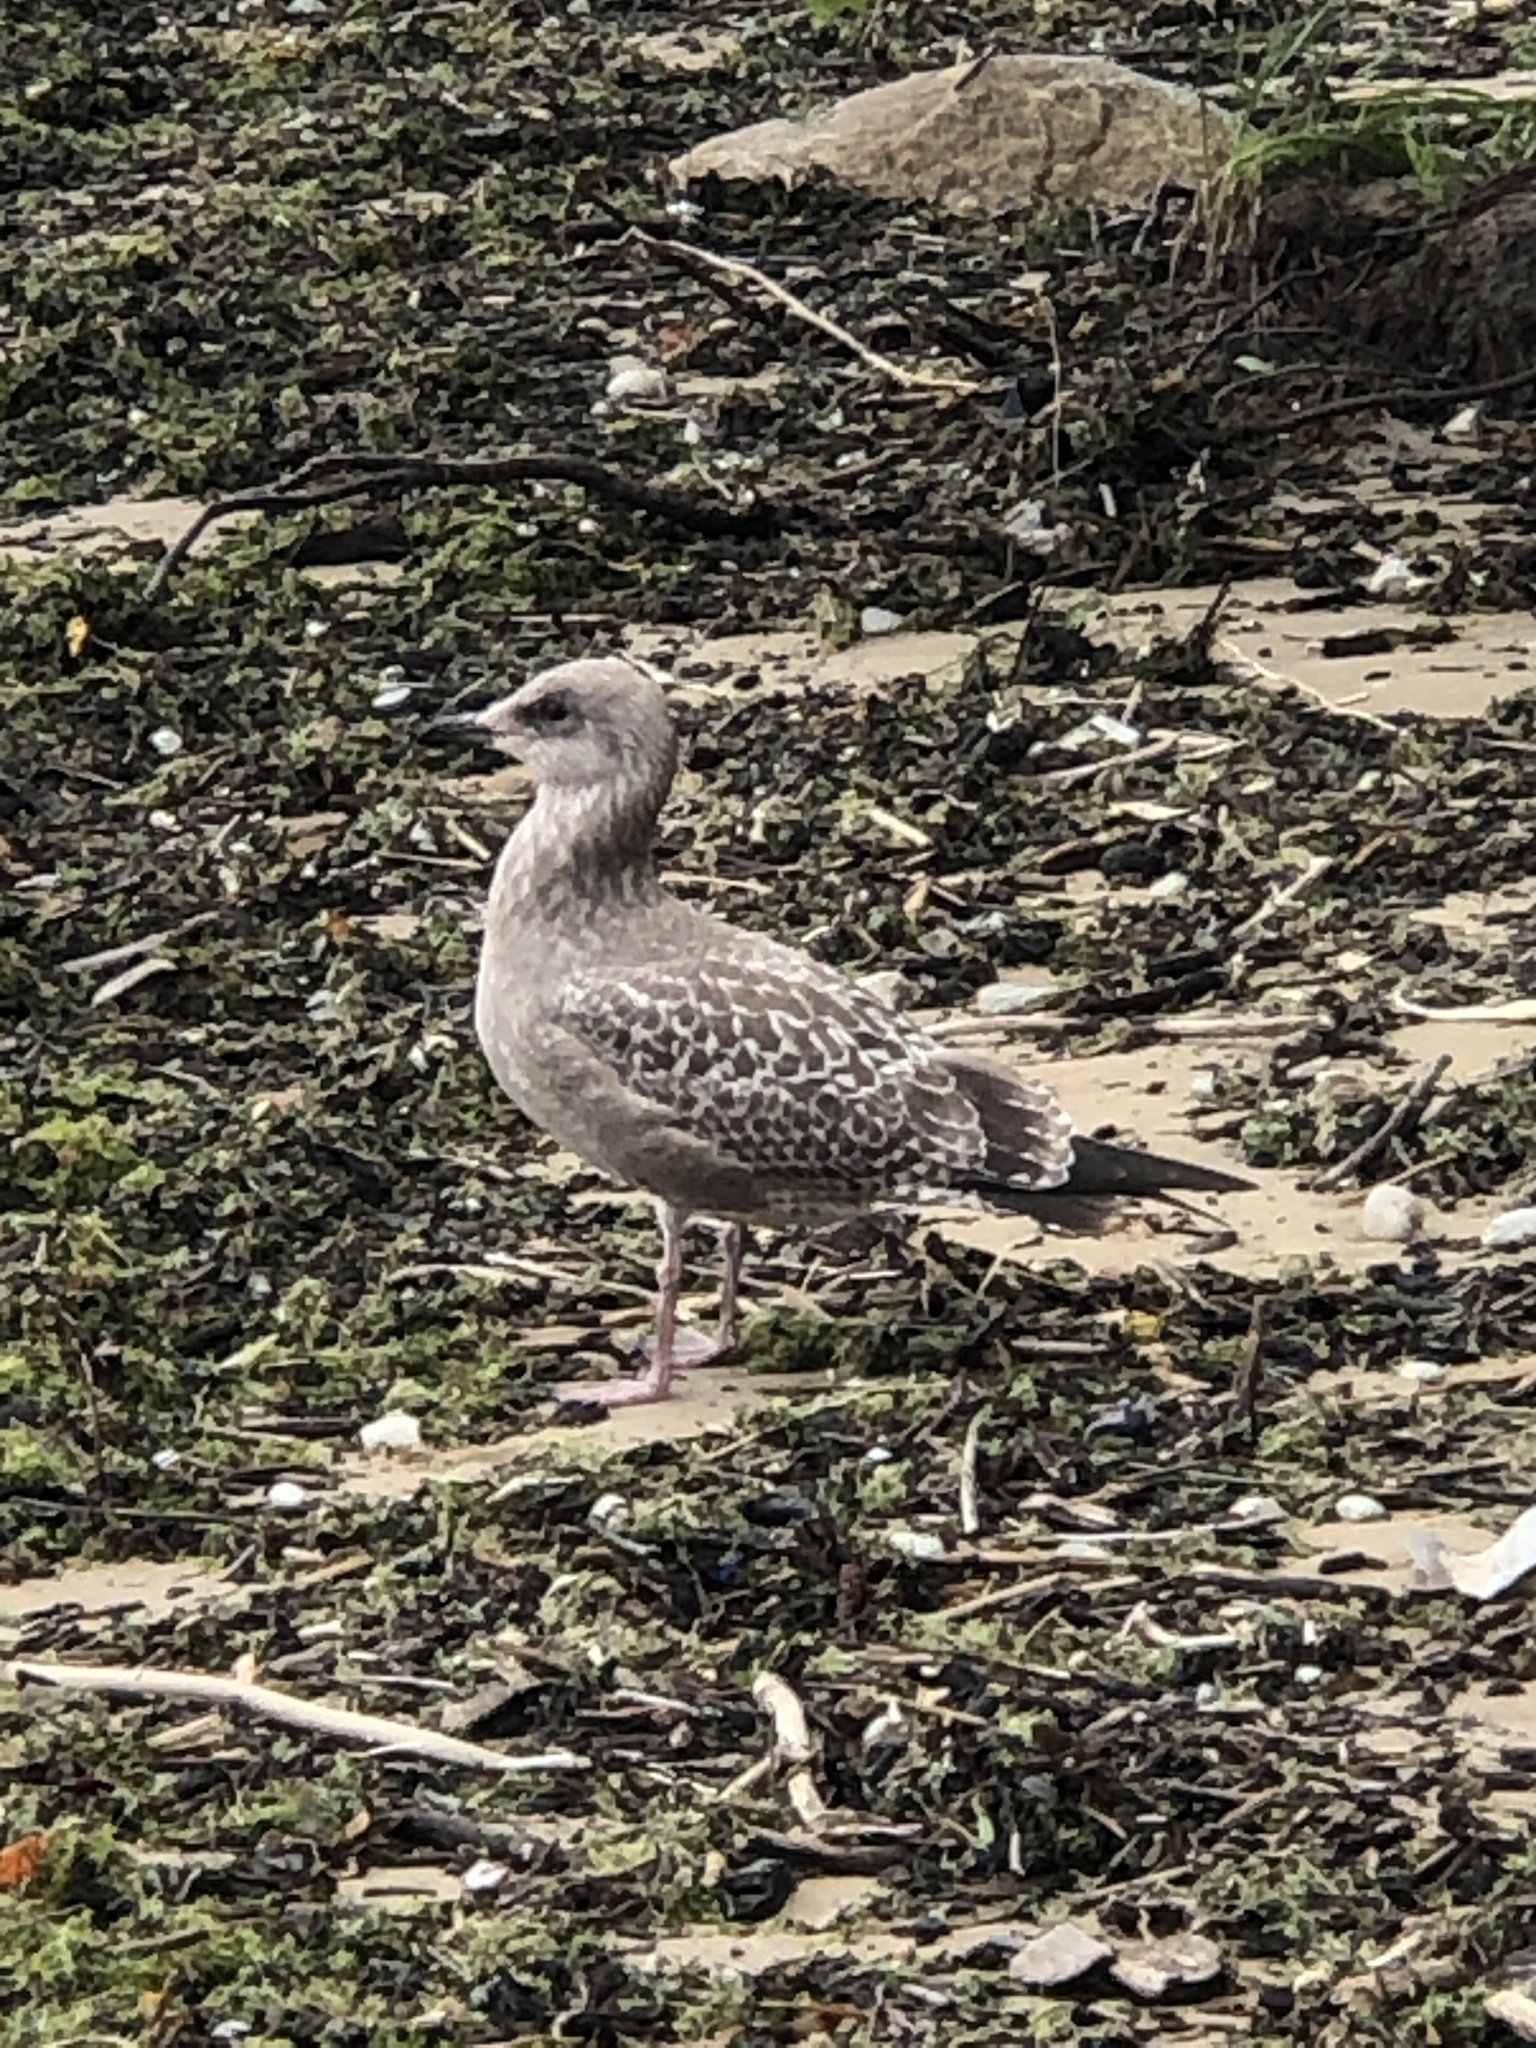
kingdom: Animalia
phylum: Chordata
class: Aves
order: Charadriiformes
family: Laridae
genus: Larus
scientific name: Larus argentatus
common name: Herring gull
